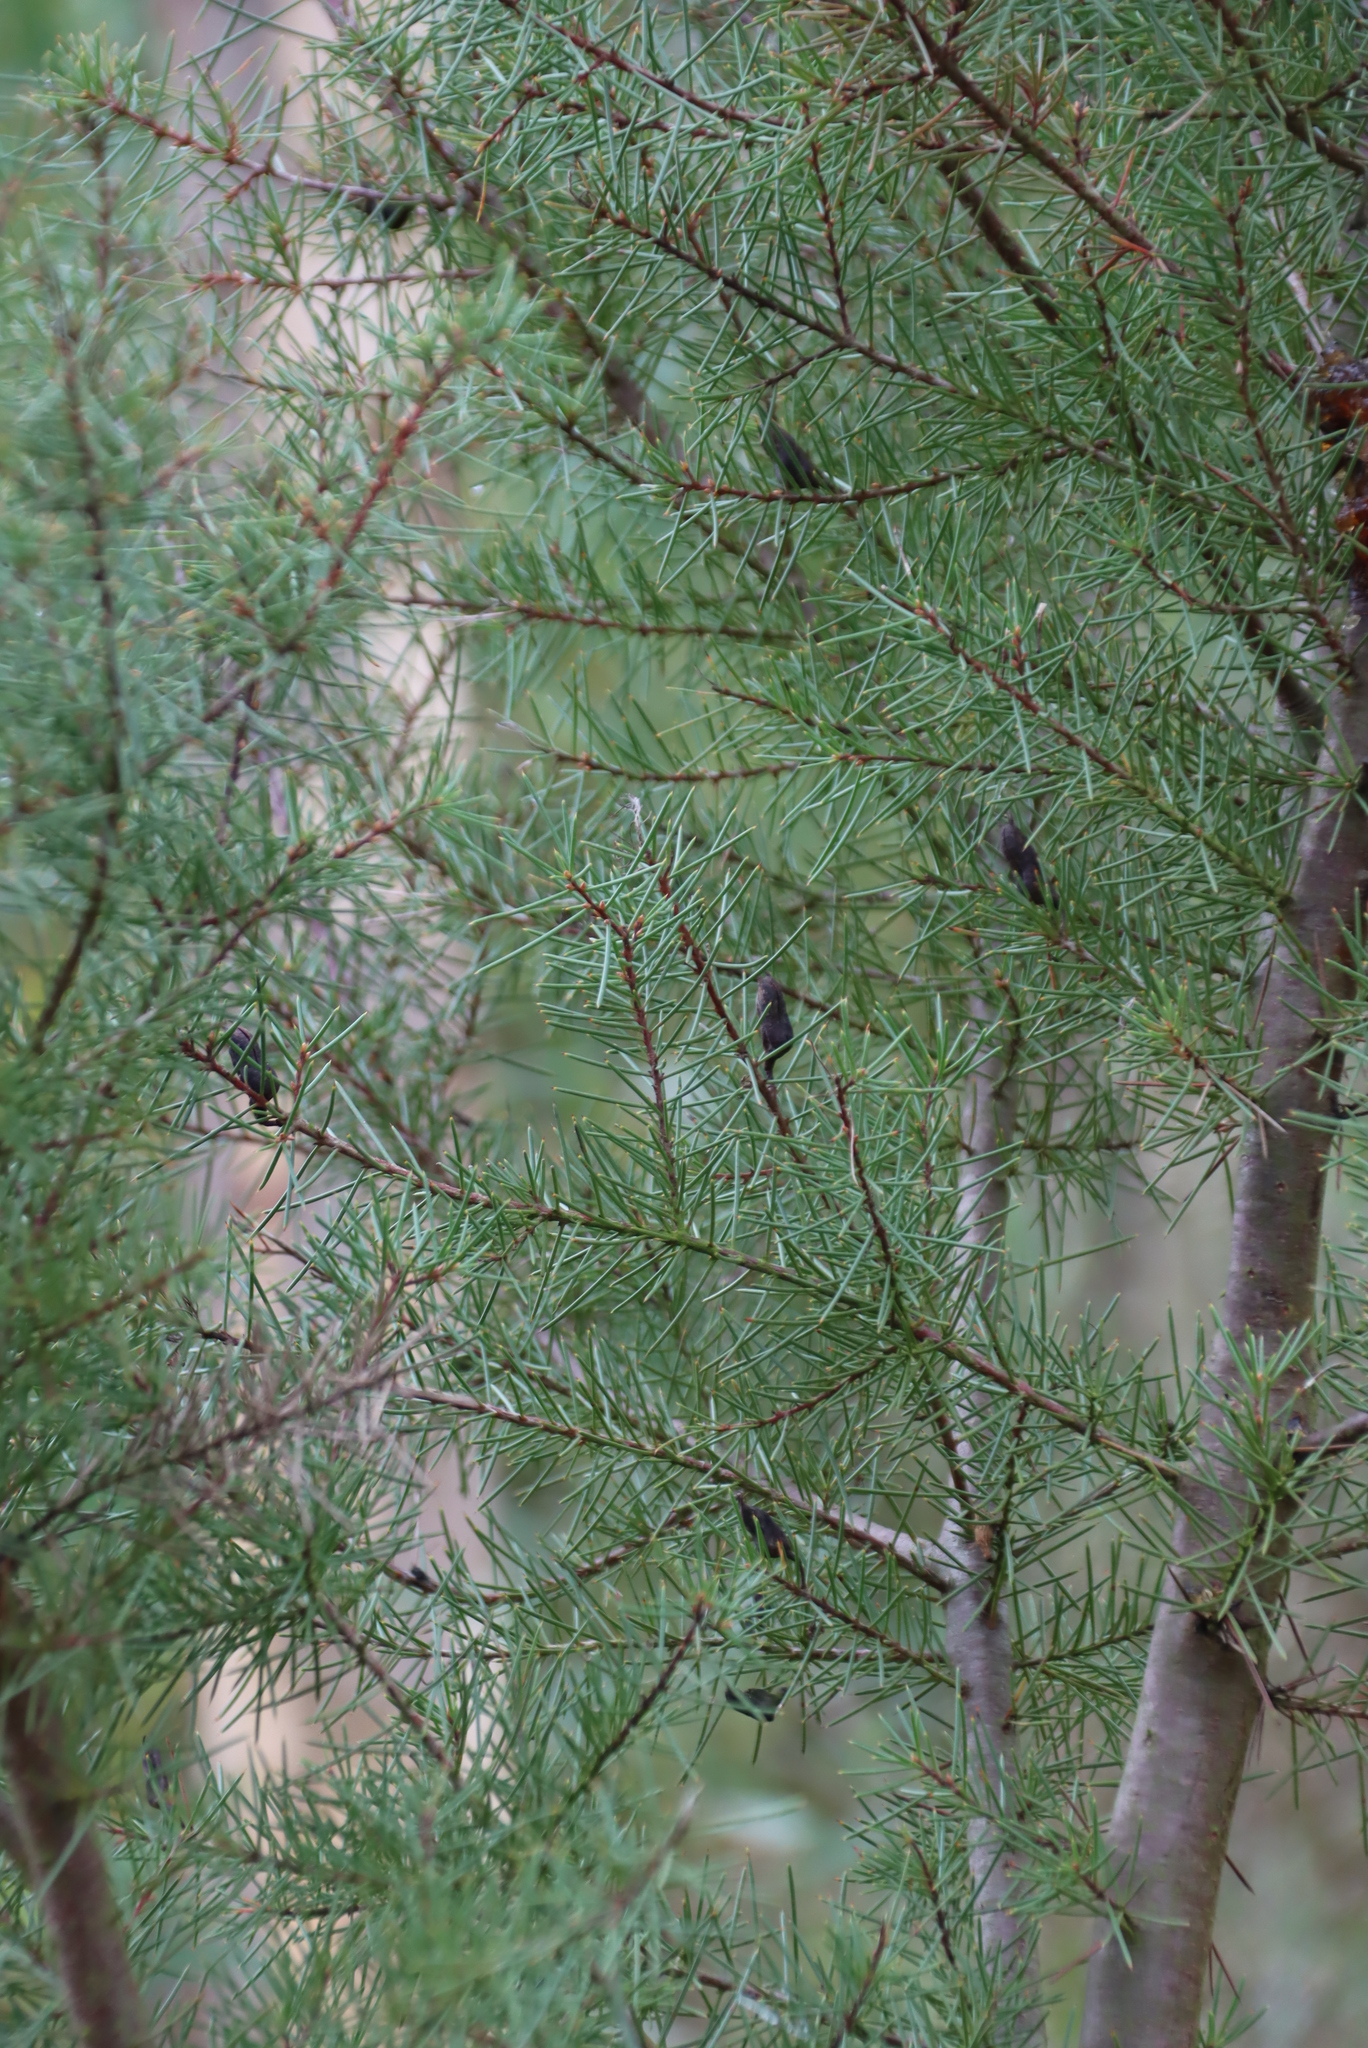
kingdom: Animalia
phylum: Arthropoda
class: Insecta
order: Coleoptera
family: Curculionidae
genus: Erytenna
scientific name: Erytenna consputa
